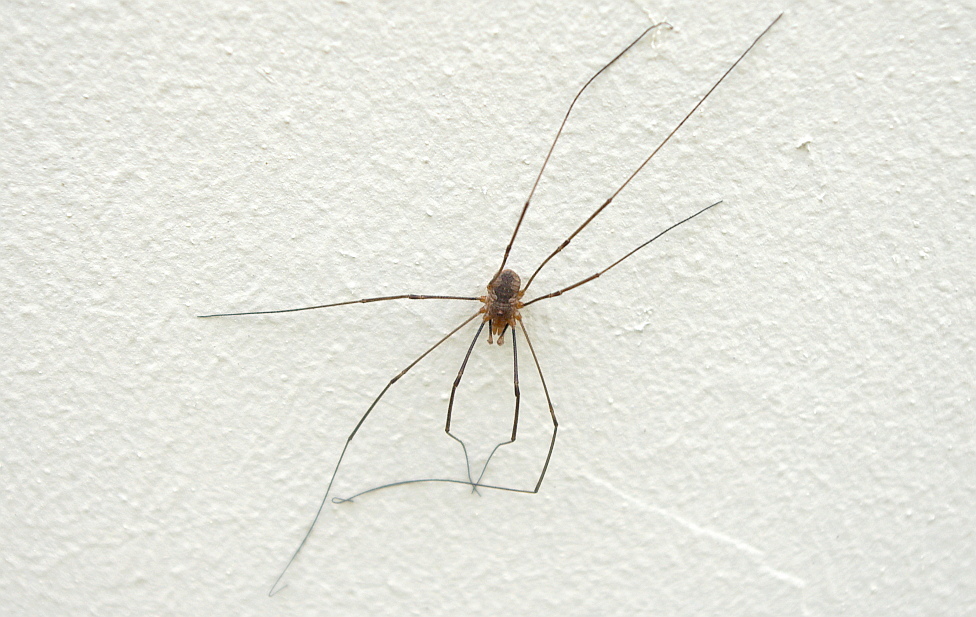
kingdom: Animalia
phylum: Arthropoda
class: Arachnida
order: Opiliones
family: Phalangiidae
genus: Phalangium
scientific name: Phalangium opilio
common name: Daddy longleg
